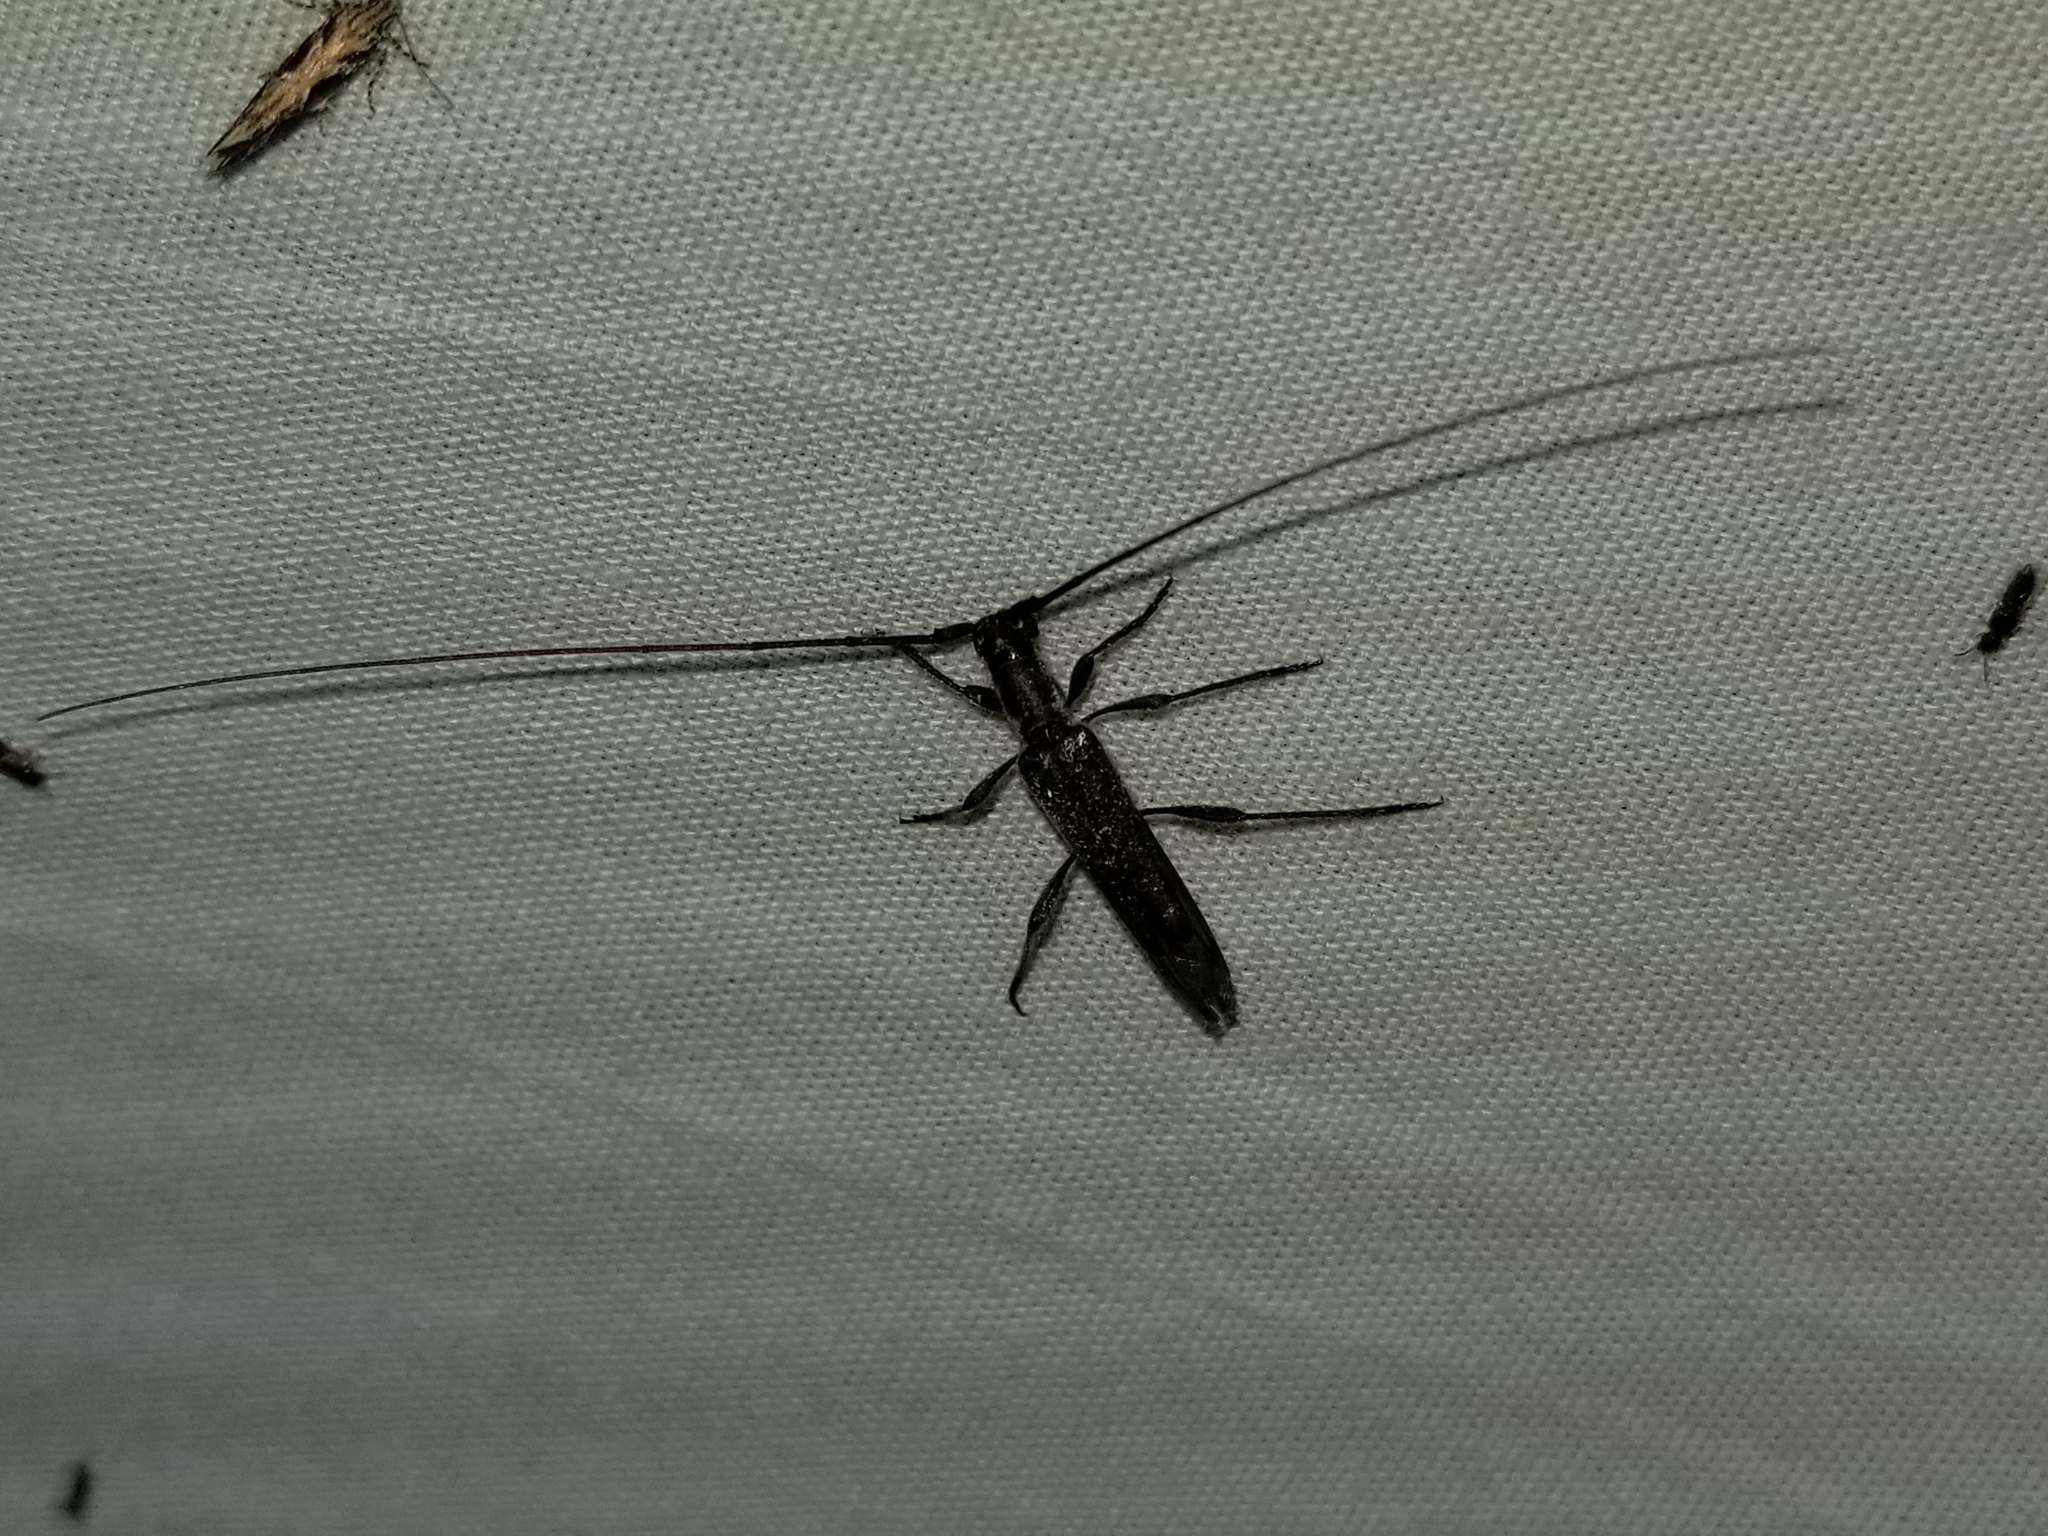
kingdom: Animalia
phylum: Arthropoda
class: Insecta
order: Coleoptera
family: Cerambycidae
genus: Styloxus
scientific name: Styloxus fulleri
